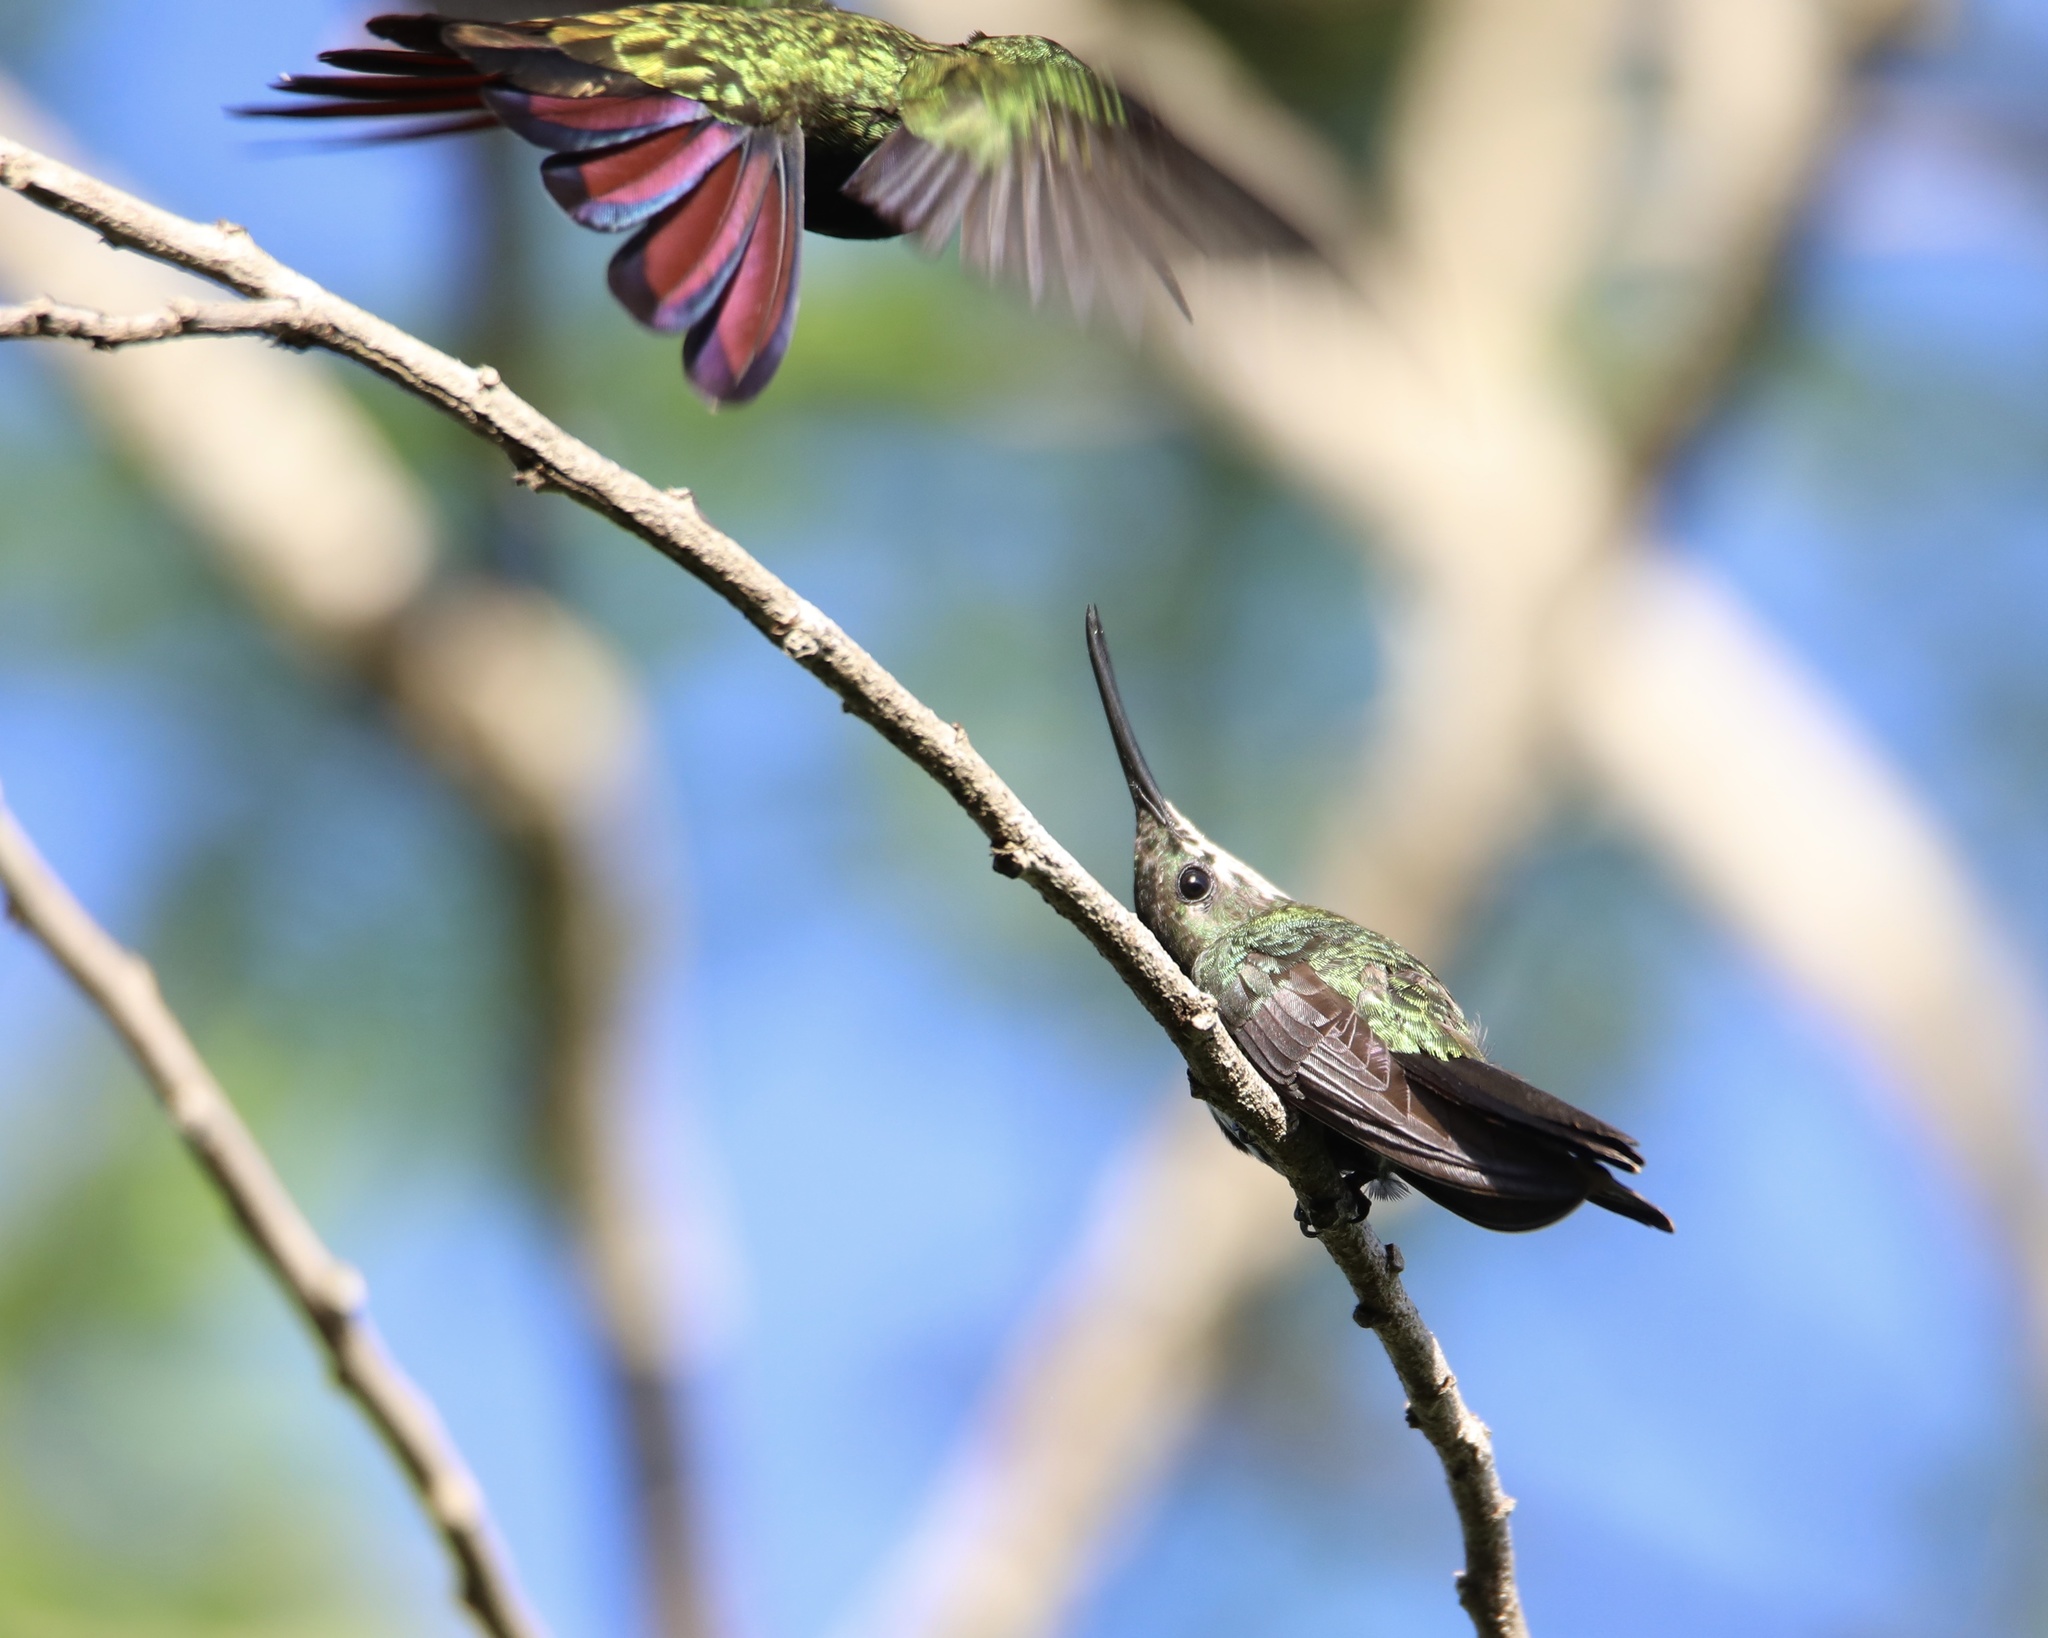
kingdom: Animalia
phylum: Chordata
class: Aves
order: Apodiformes
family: Trochilidae
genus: Anthracothorax
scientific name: Anthracothorax dominicus
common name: Antillean mango
